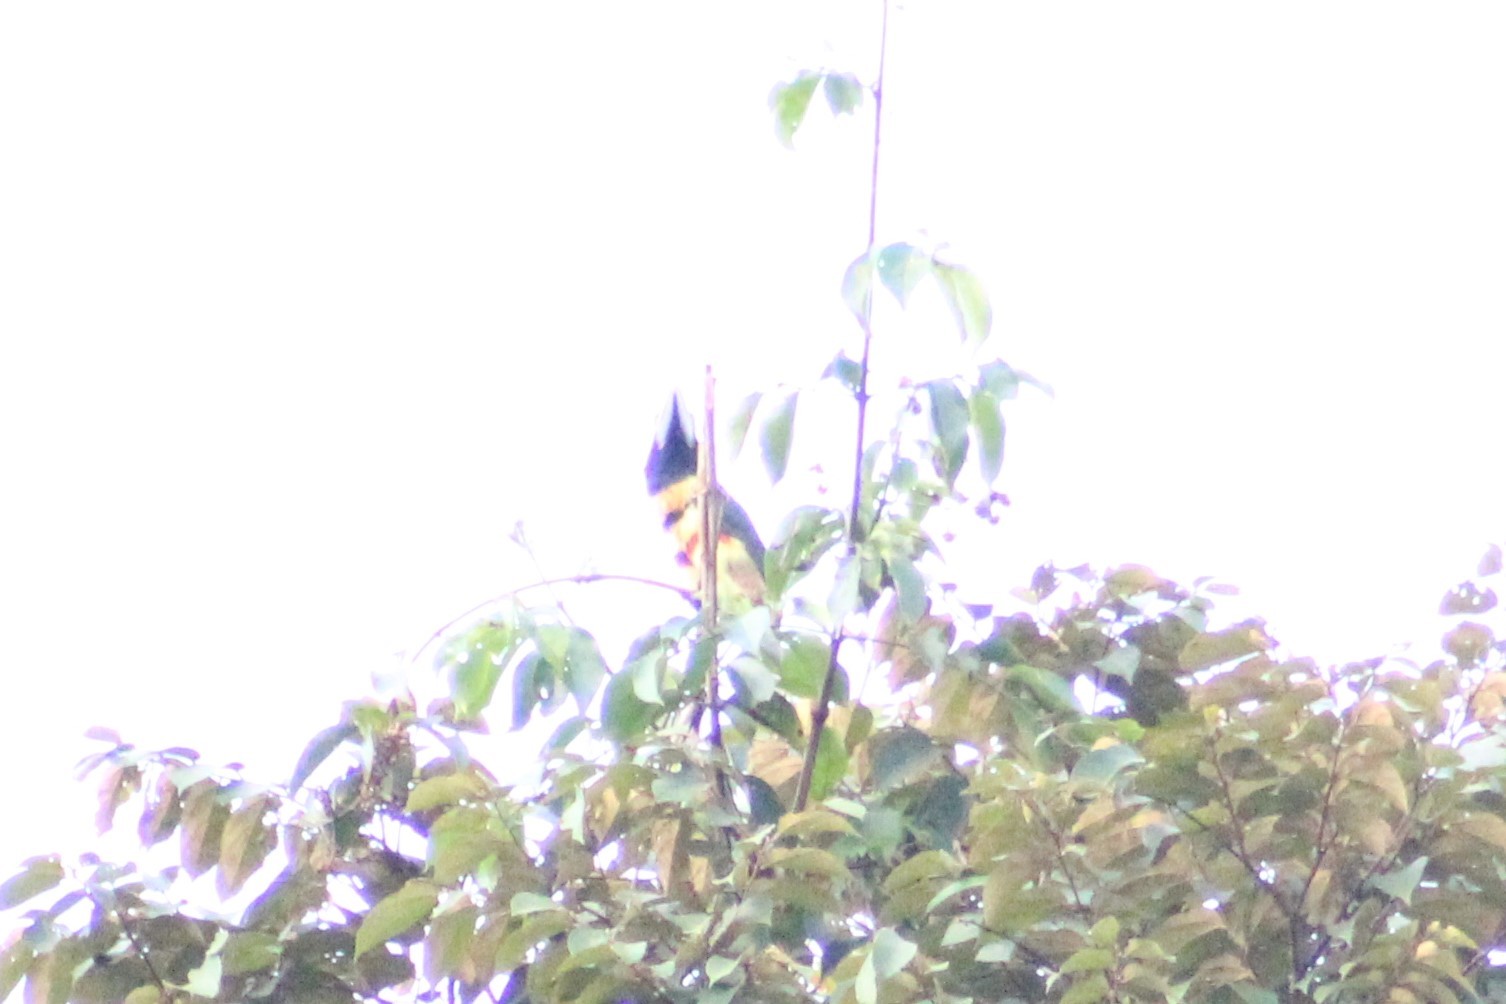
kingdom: Animalia
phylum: Chordata
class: Aves
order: Piciformes
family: Ramphastidae
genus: Pteroglossus
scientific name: Pteroglossus pluricinctus
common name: Many-banded aracari
